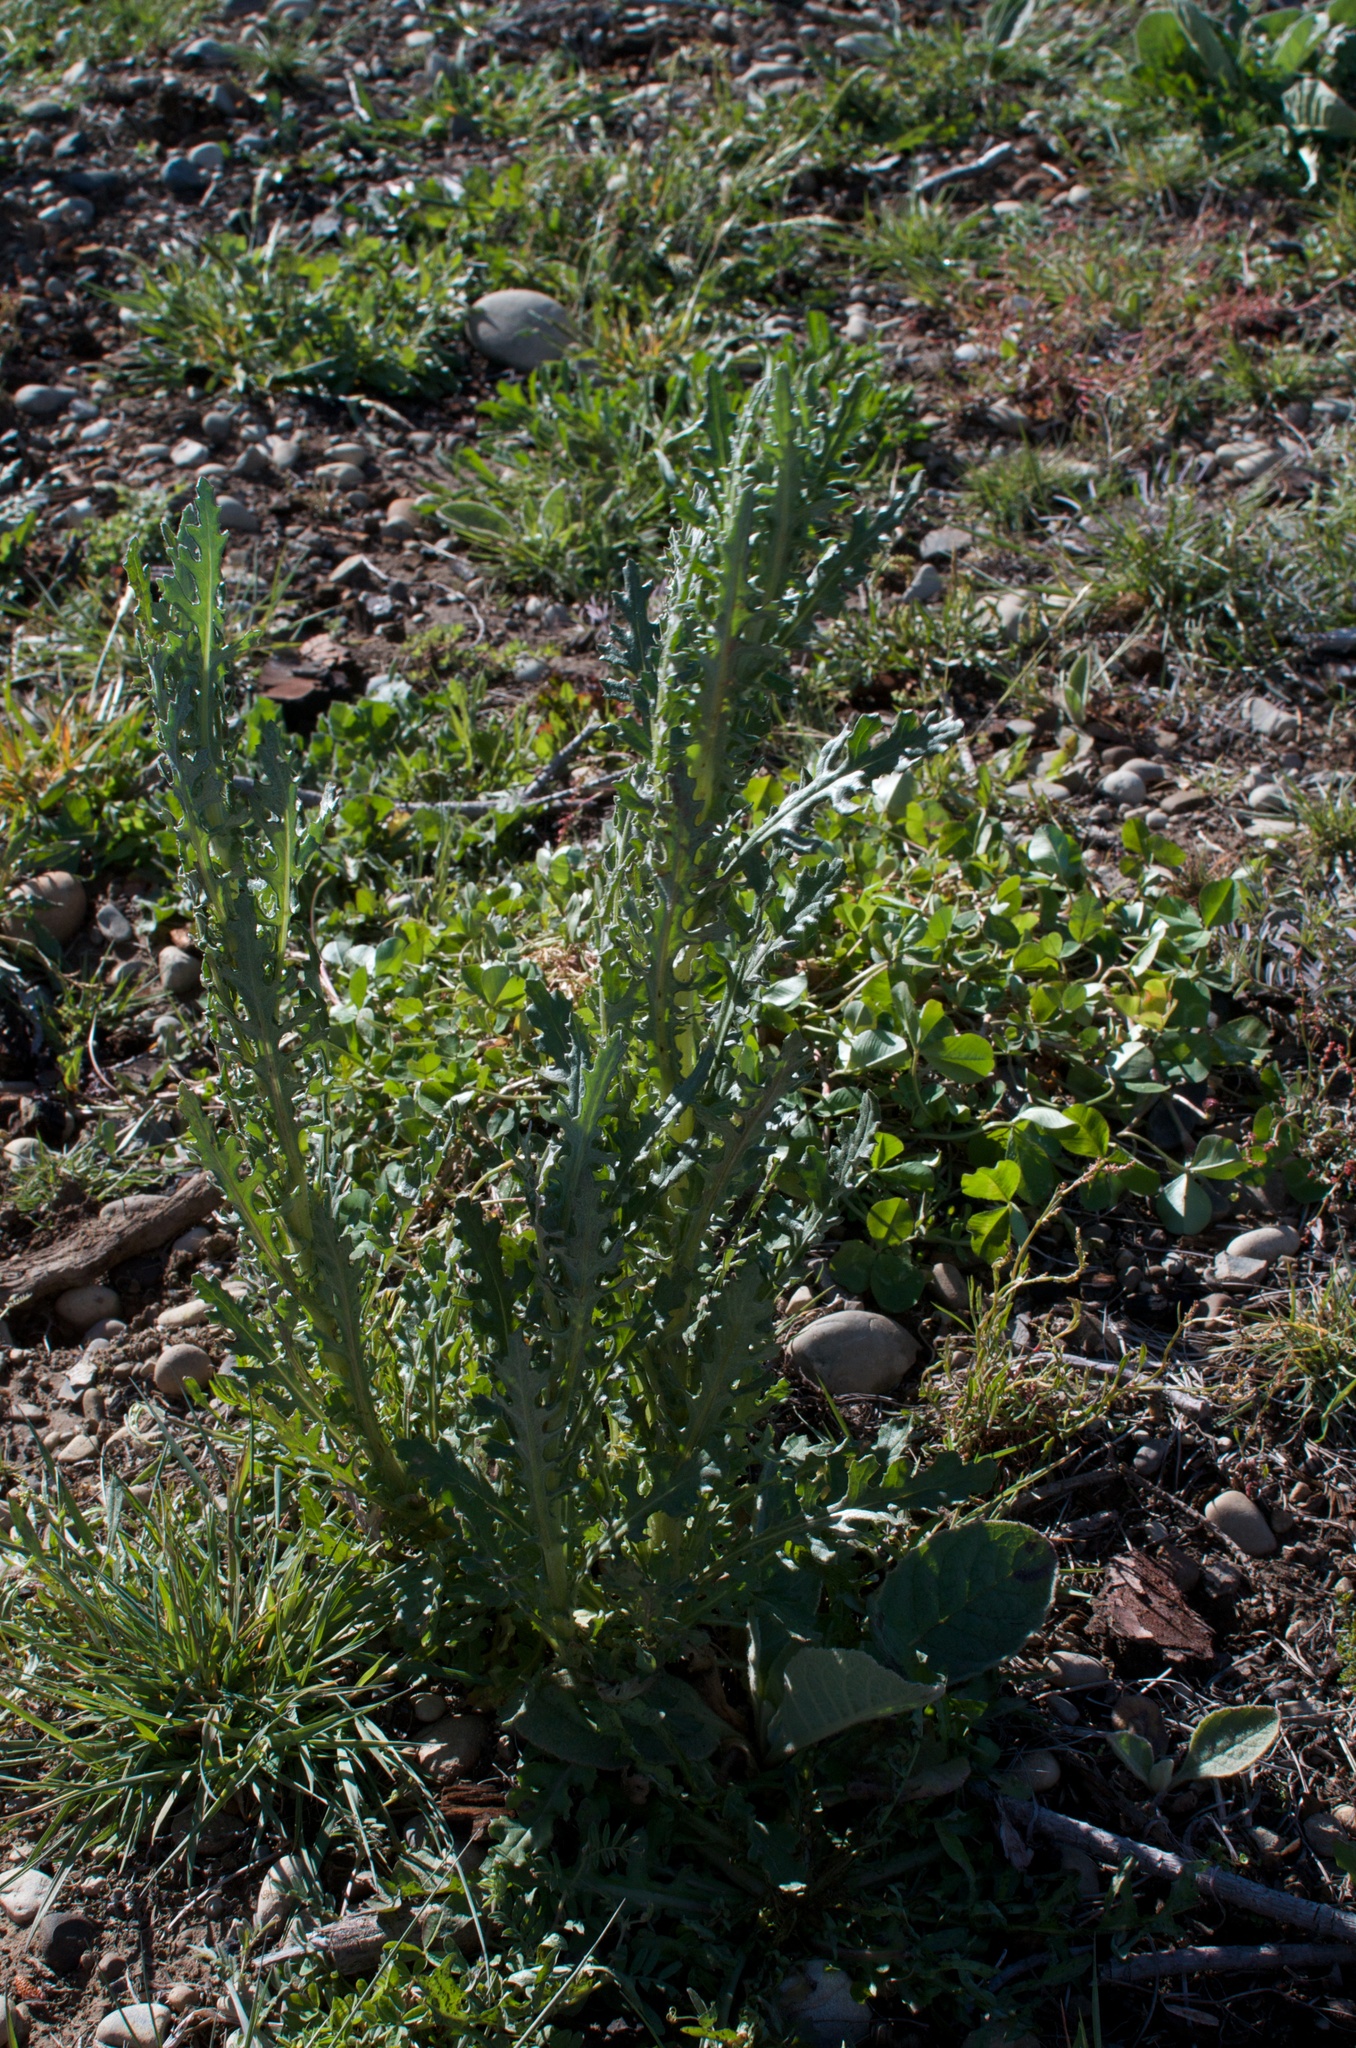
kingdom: Plantae
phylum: Tracheophyta
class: Magnoliopsida
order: Asterales
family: Asteraceae
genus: Senecio
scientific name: Senecio glomeratus
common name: Cutleaf burnweed
